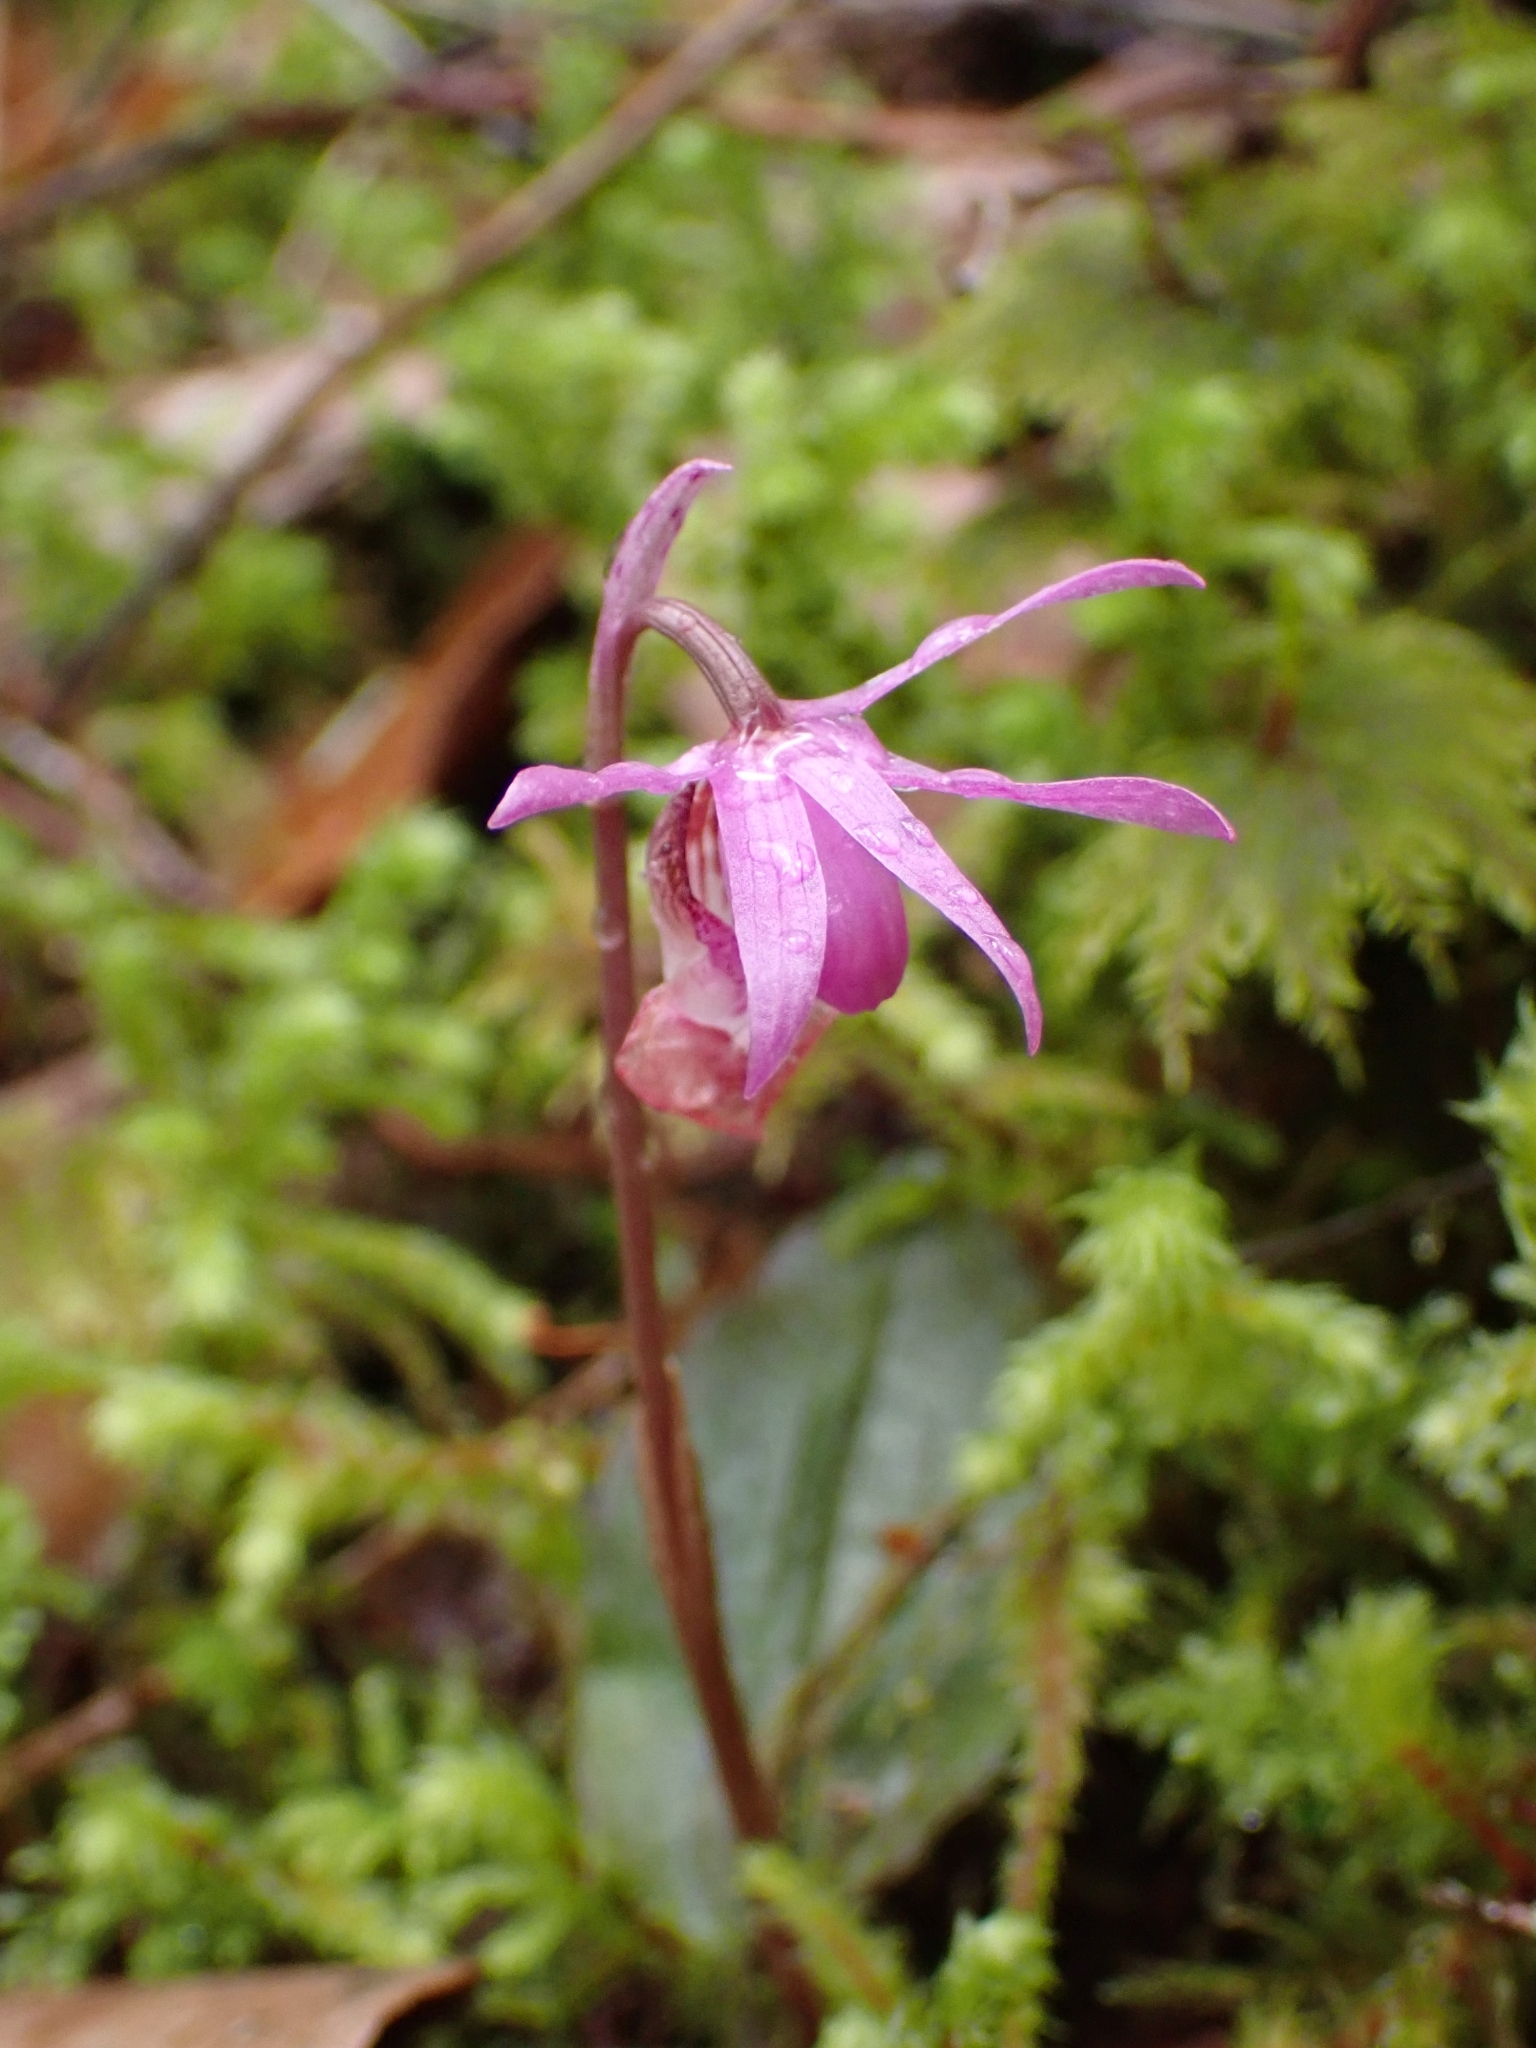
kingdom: Plantae
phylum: Tracheophyta
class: Liliopsida
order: Asparagales
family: Orchidaceae
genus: Calypso
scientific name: Calypso bulbosa
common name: Calypso
